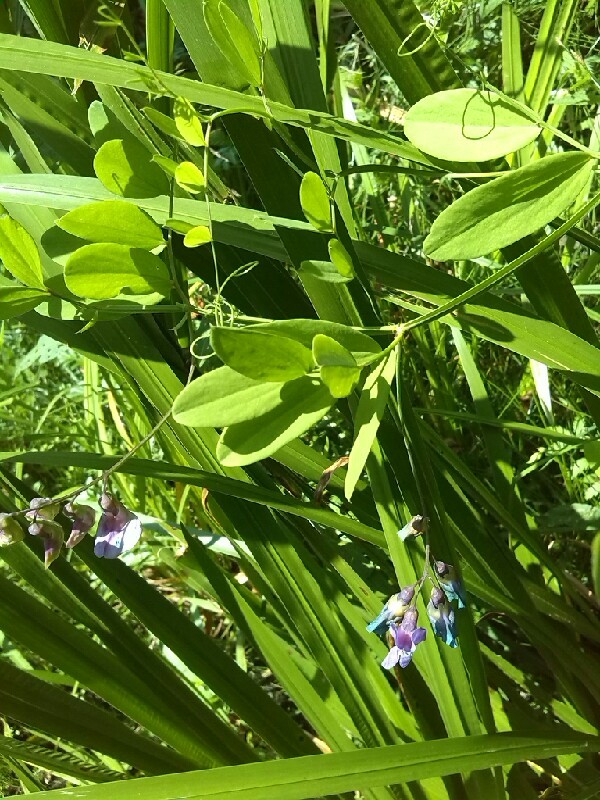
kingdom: Plantae
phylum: Tracheophyta
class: Magnoliopsida
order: Fabales
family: Fabaceae
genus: Lathyrus
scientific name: Lathyrus palustris
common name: Marsh pea
